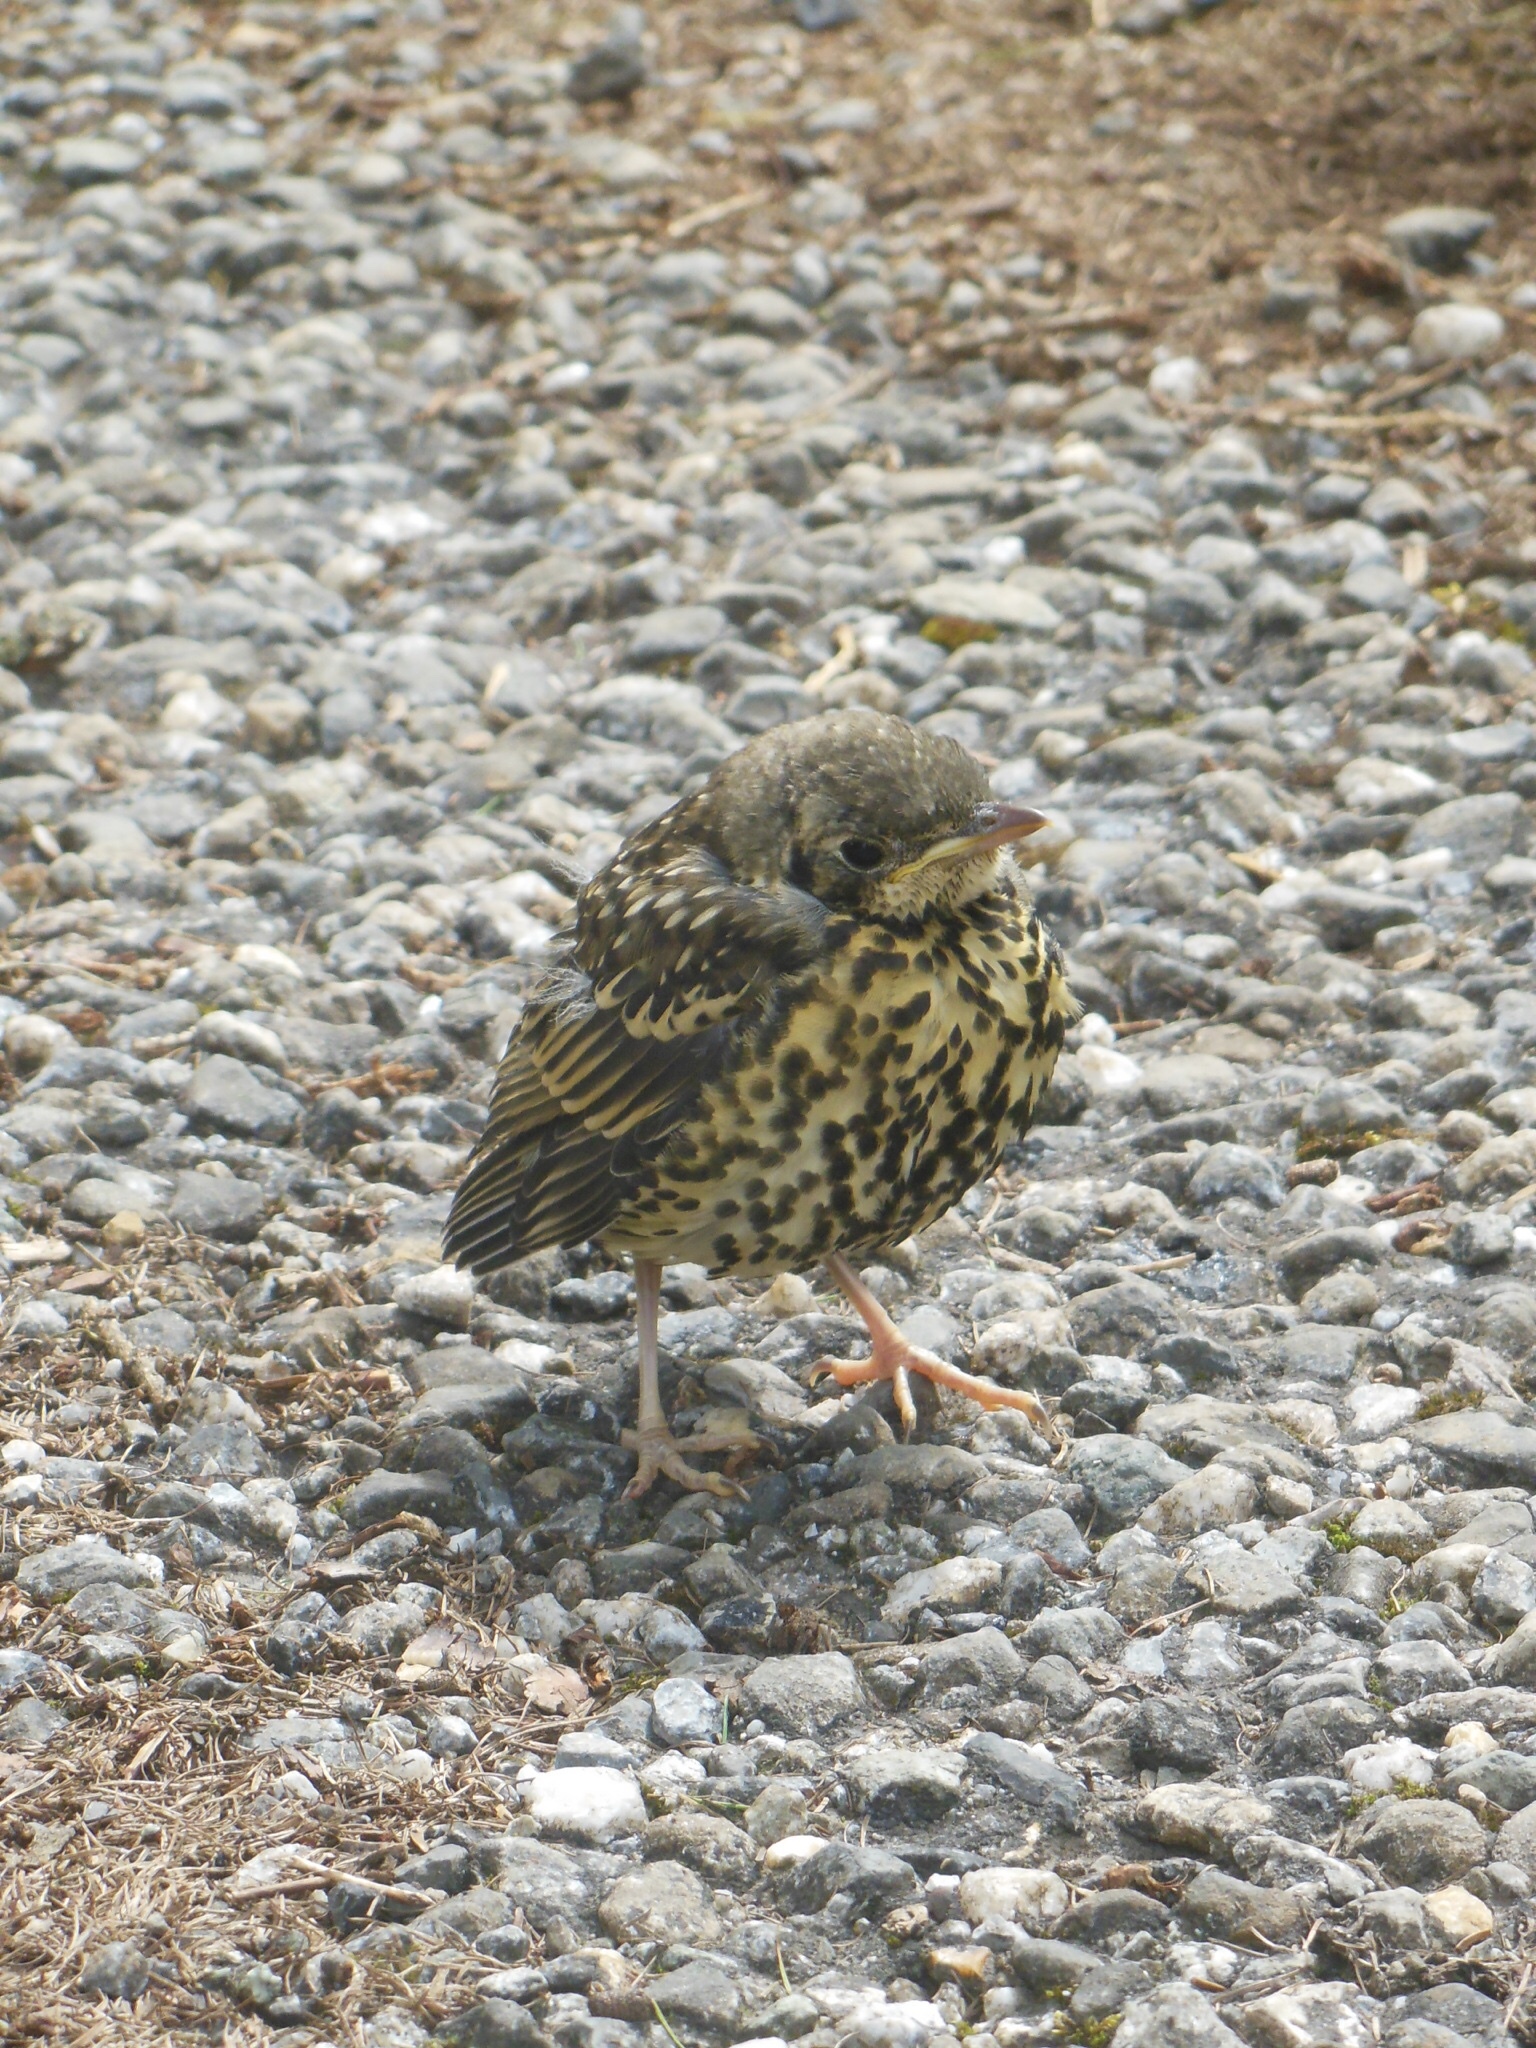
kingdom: Animalia
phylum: Chordata
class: Aves
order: Passeriformes
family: Turdidae
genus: Turdus
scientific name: Turdus viscivorus
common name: Mistle thrush
